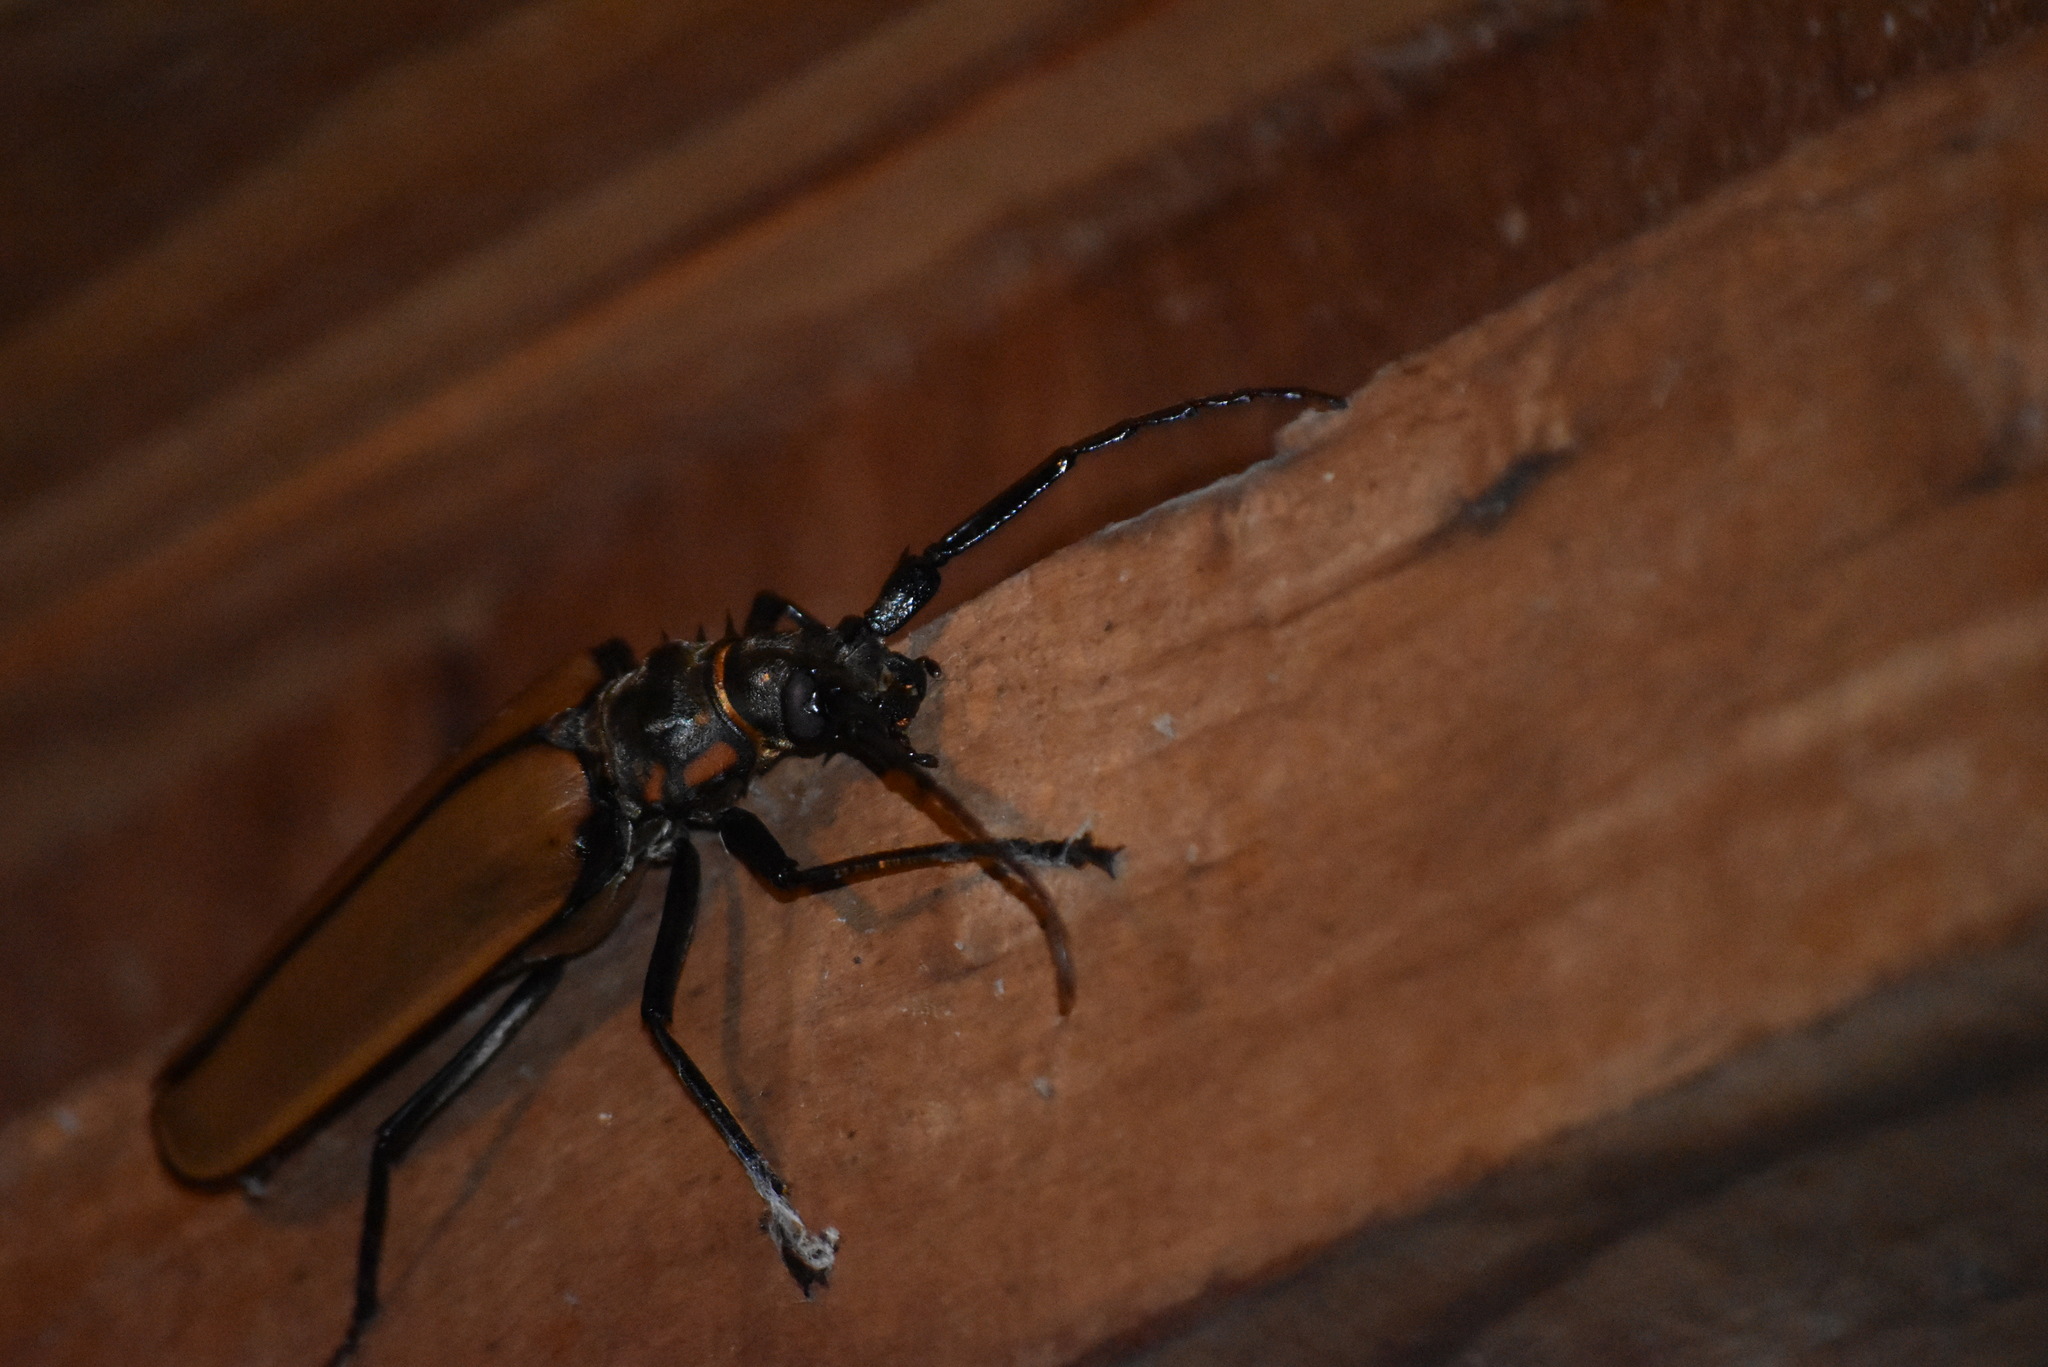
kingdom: Animalia
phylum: Arthropoda
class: Insecta
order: Coleoptera
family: Cerambycidae
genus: Enoplocerus
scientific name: Enoplocerus armillatus
